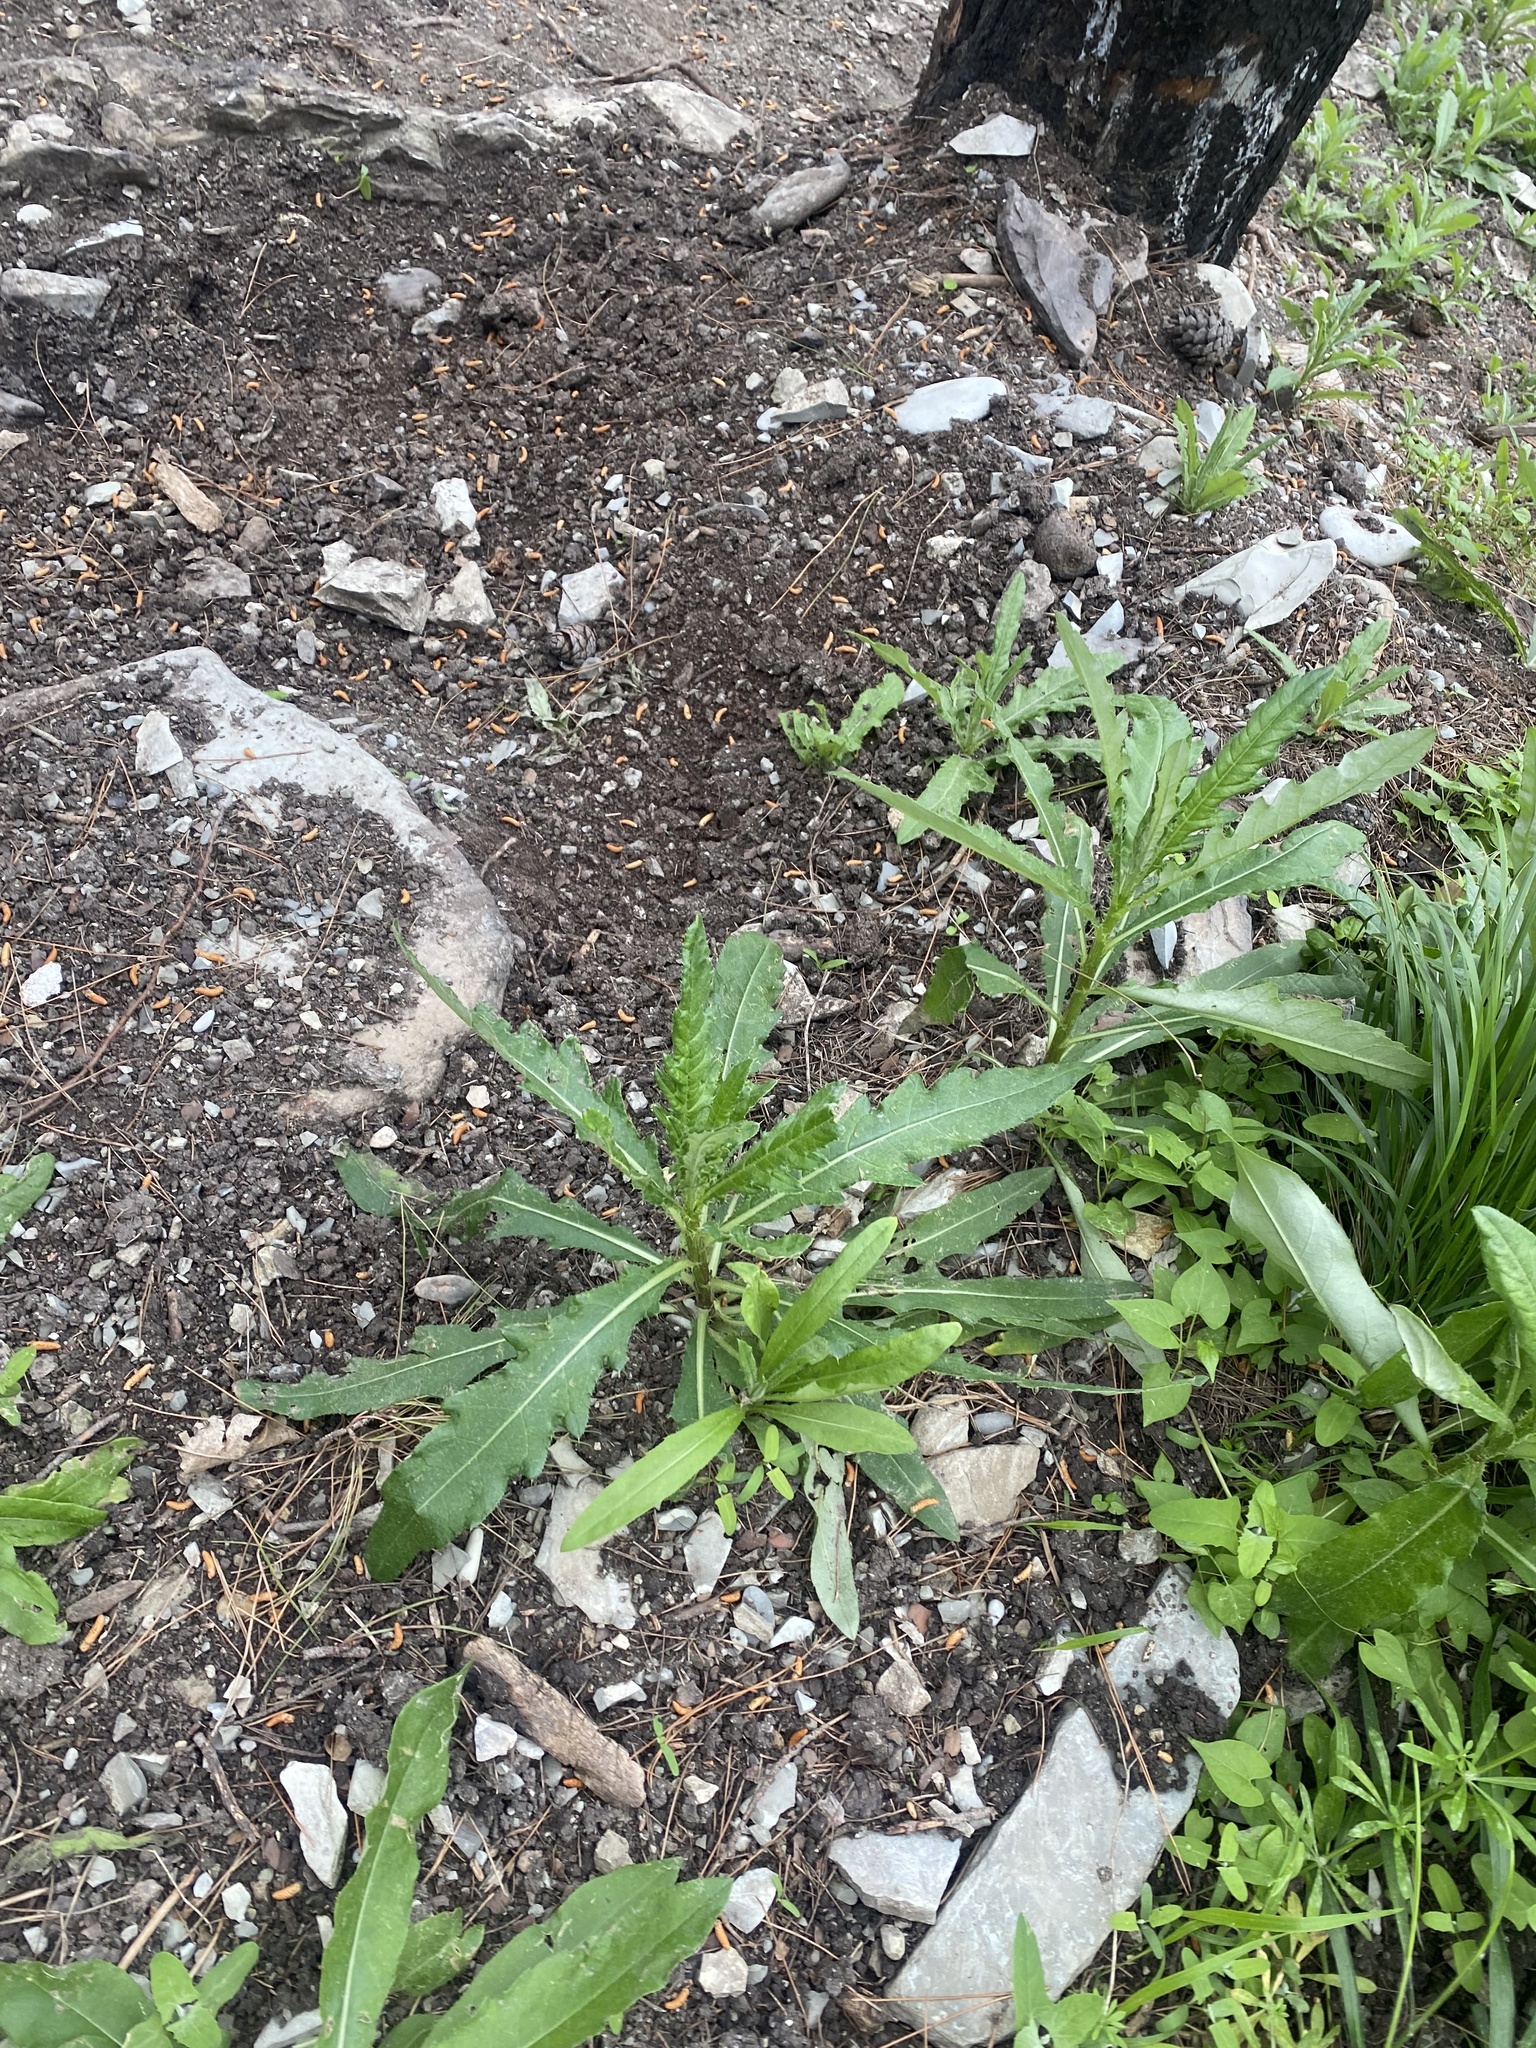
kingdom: Plantae
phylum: Tracheophyta
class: Magnoliopsida
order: Asterales
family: Asteraceae
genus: Cirsium
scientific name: Cirsium arvense
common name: Creeping thistle
